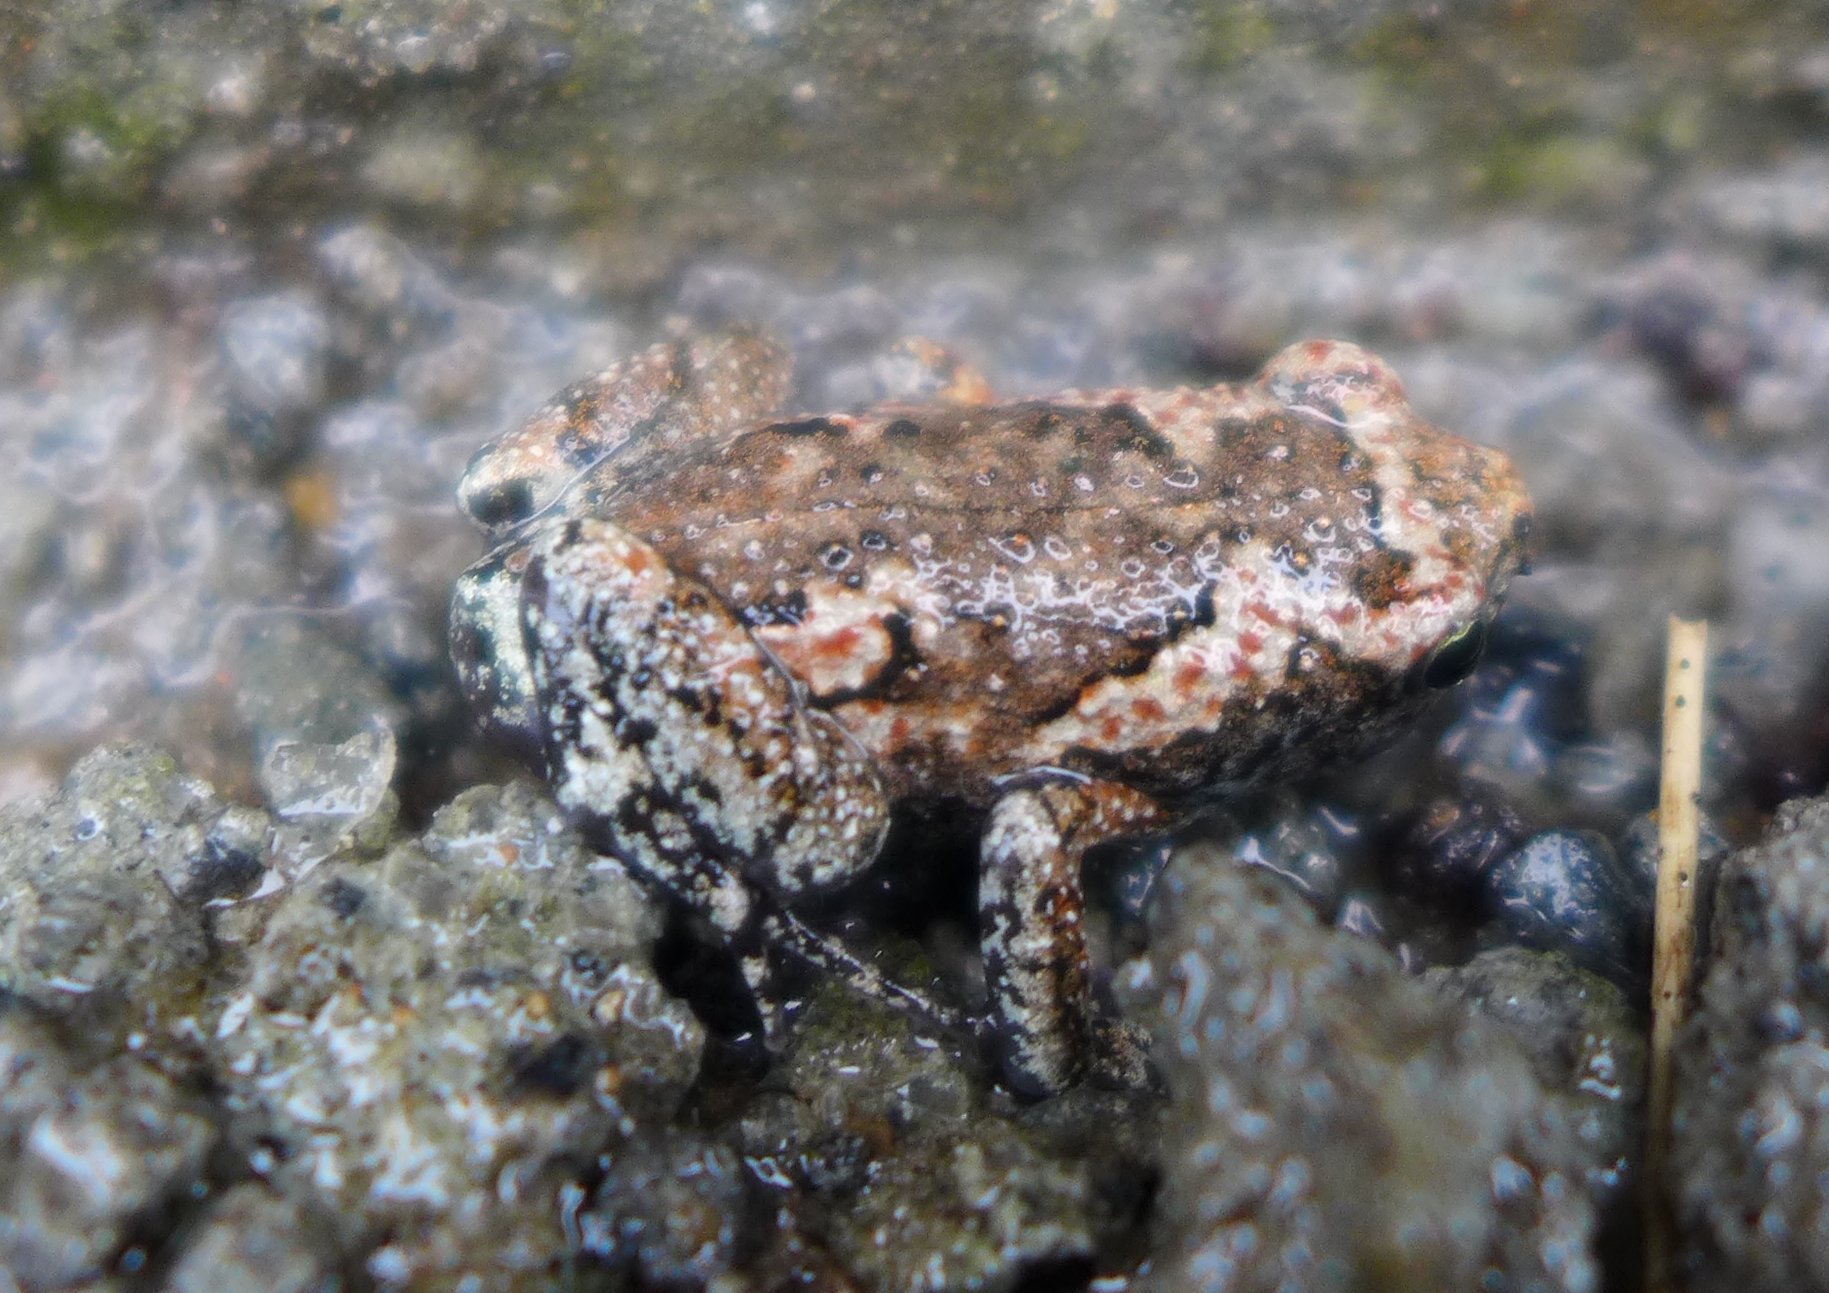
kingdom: Animalia
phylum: Chordata
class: Amphibia
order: Anura
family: Microhylidae
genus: Uperodon
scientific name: Uperodon taprobanicus
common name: Ceylon kaloula
